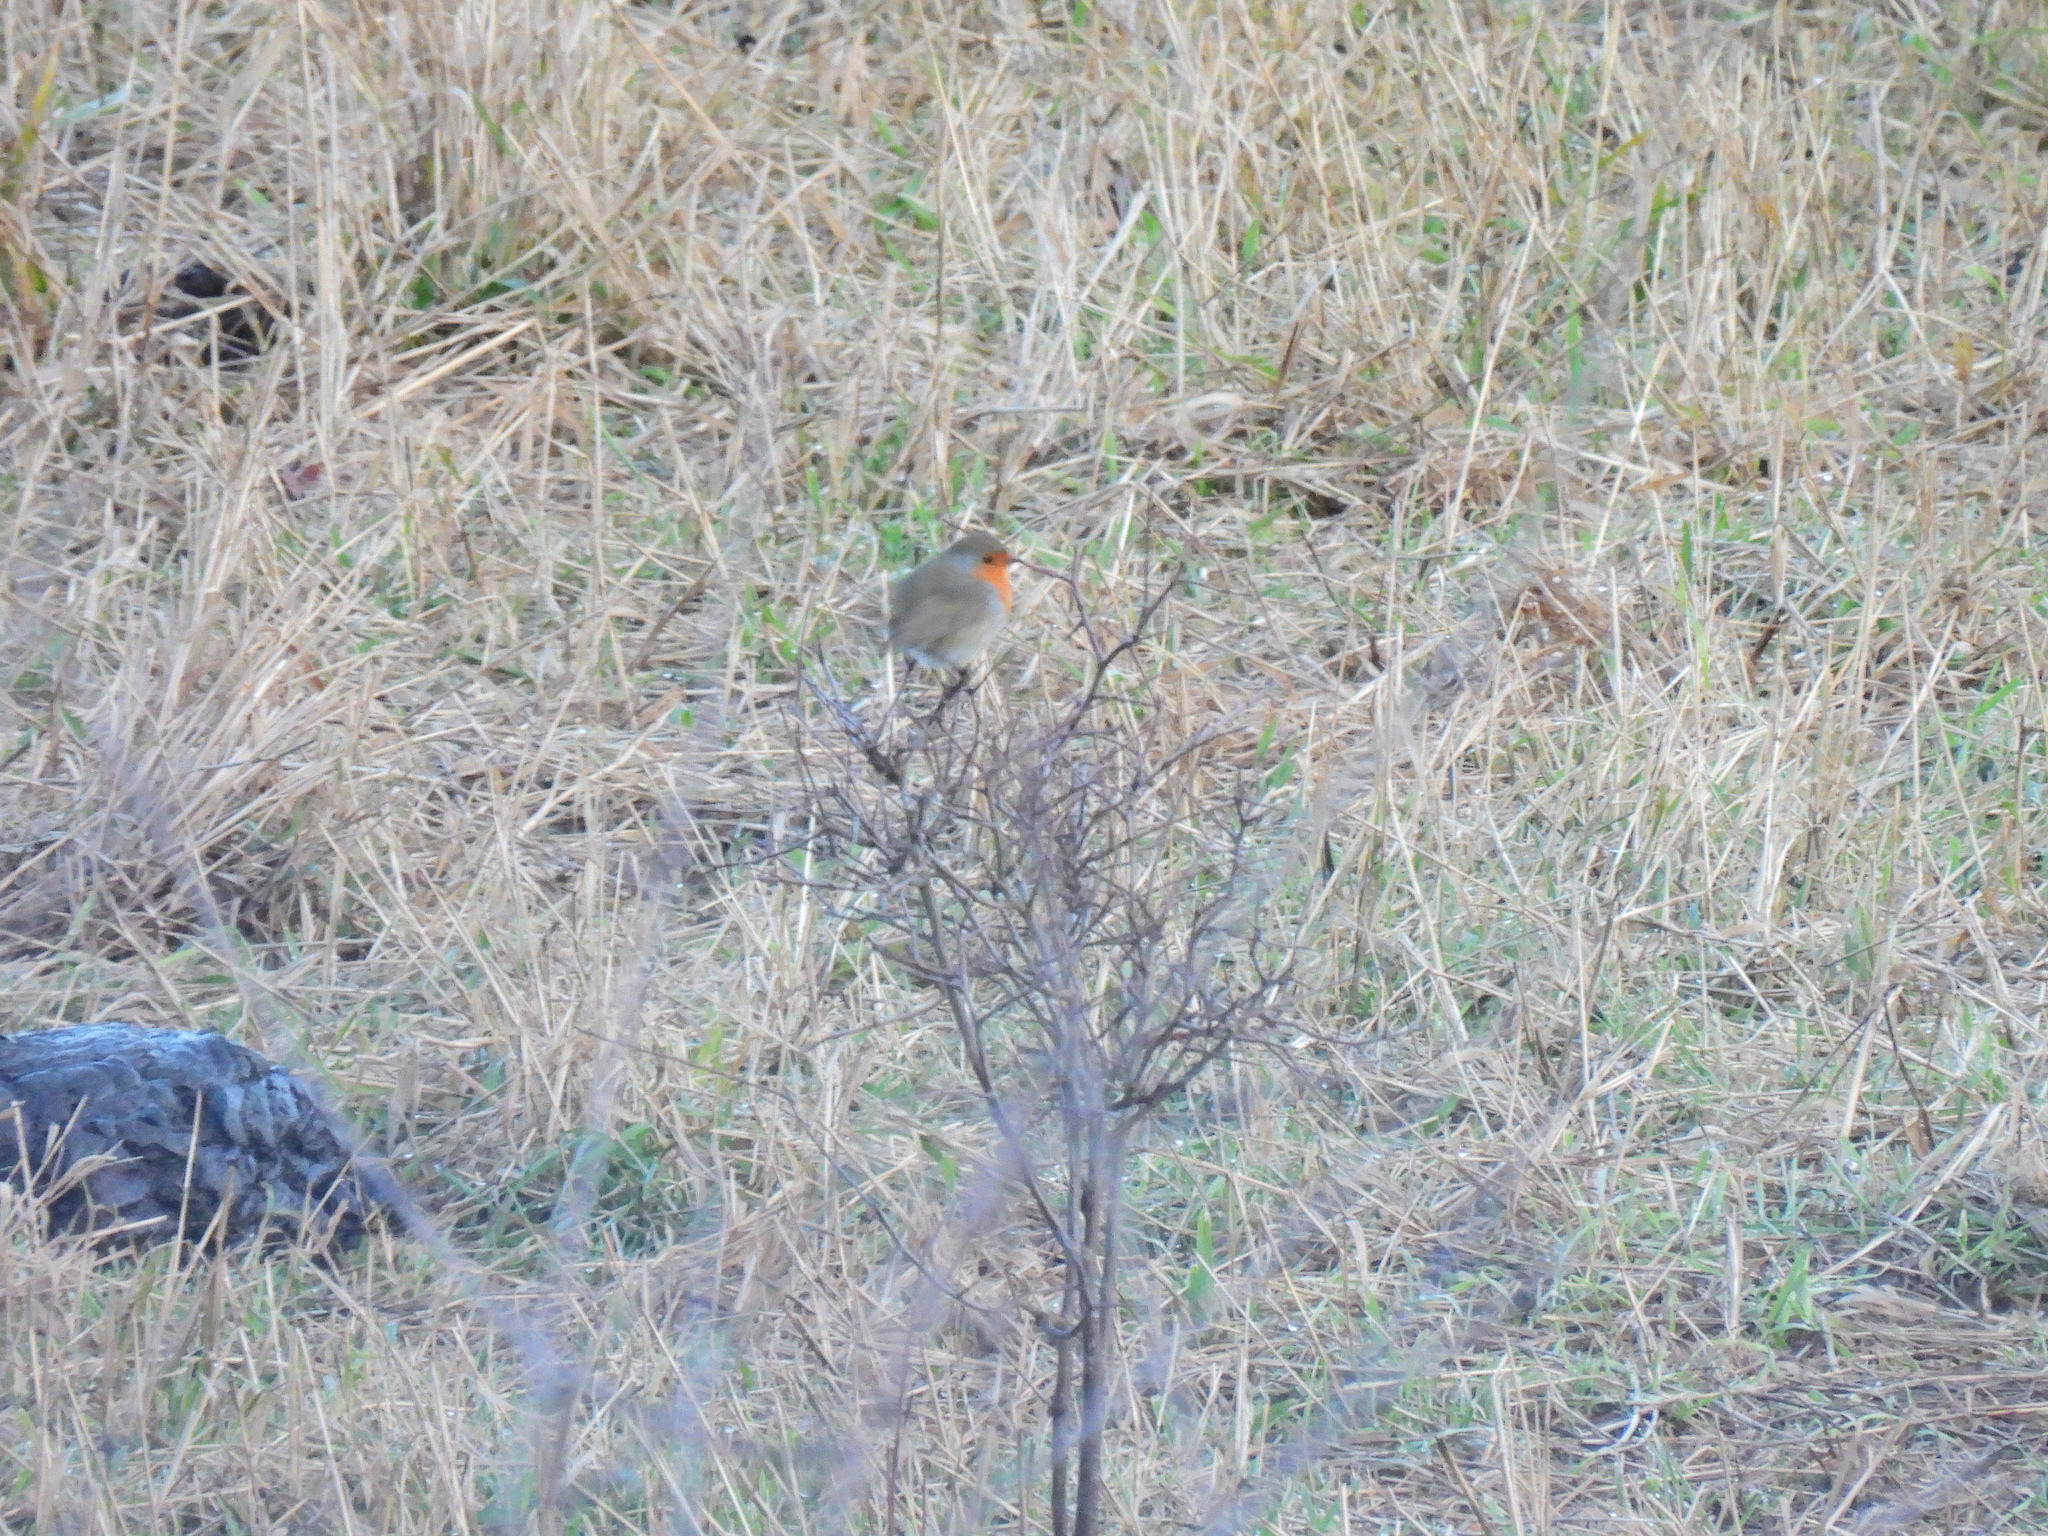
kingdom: Animalia
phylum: Chordata
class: Aves
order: Passeriformes
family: Muscicapidae
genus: Erithacus
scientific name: Erithacus rubecula
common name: European robin
